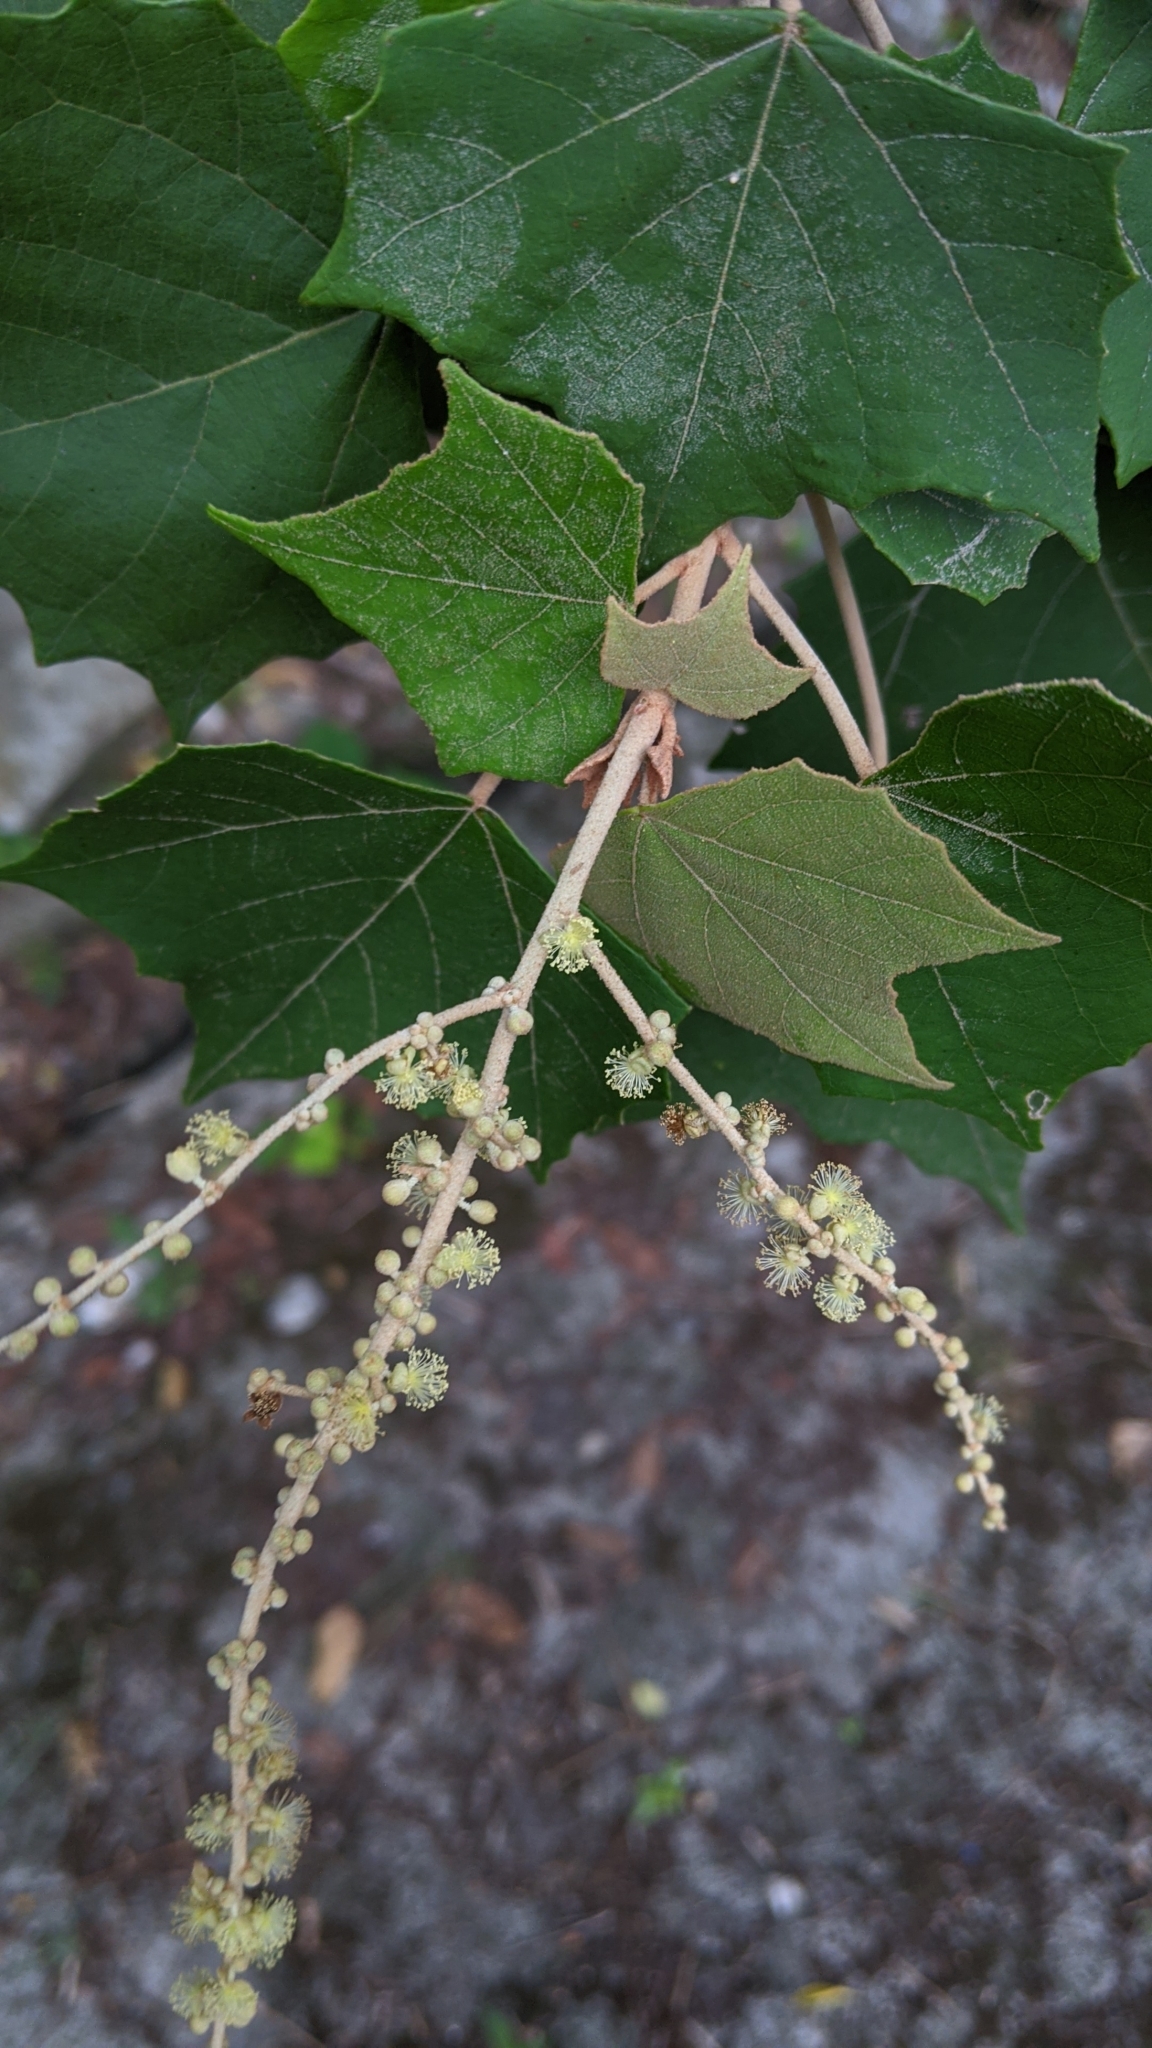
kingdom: Plantae
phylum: Tracheophyta
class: Magnoliopsida
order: Malpighiales
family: Euphorbiaceae
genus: Mallotus
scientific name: Mallotus paniculatus
